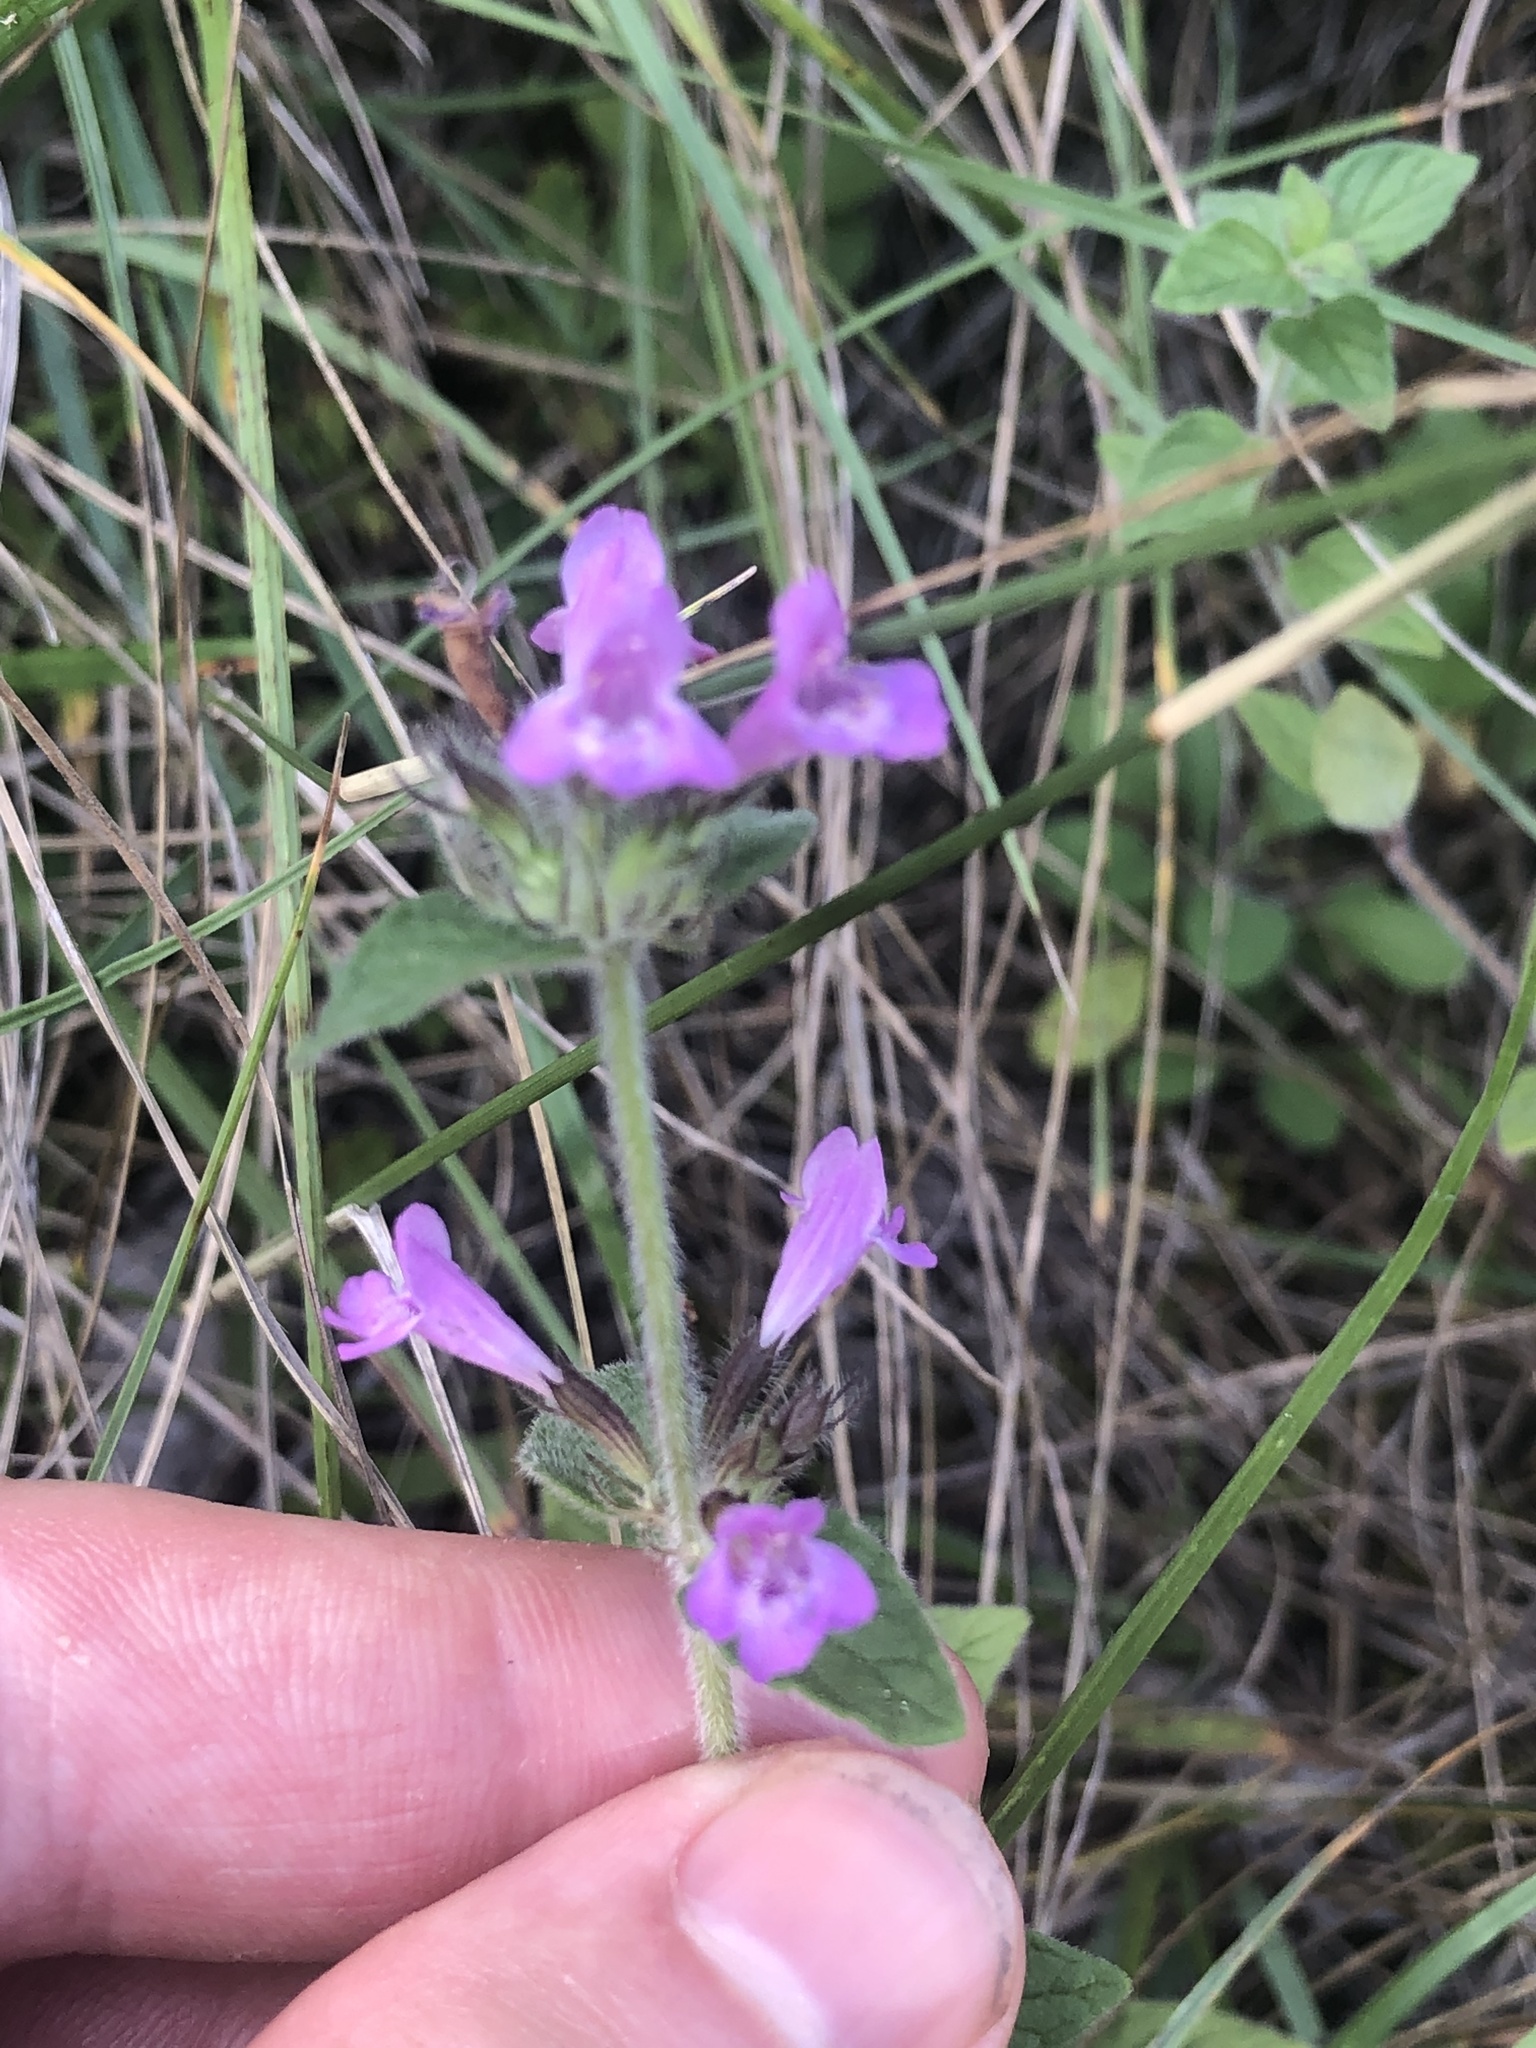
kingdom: Plantae
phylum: Tracheophyta
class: Magnoliopsida
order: Lamiales
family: Lamiaceae
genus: Clinopodium
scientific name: Clinopodium vulgare
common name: Wild basil
